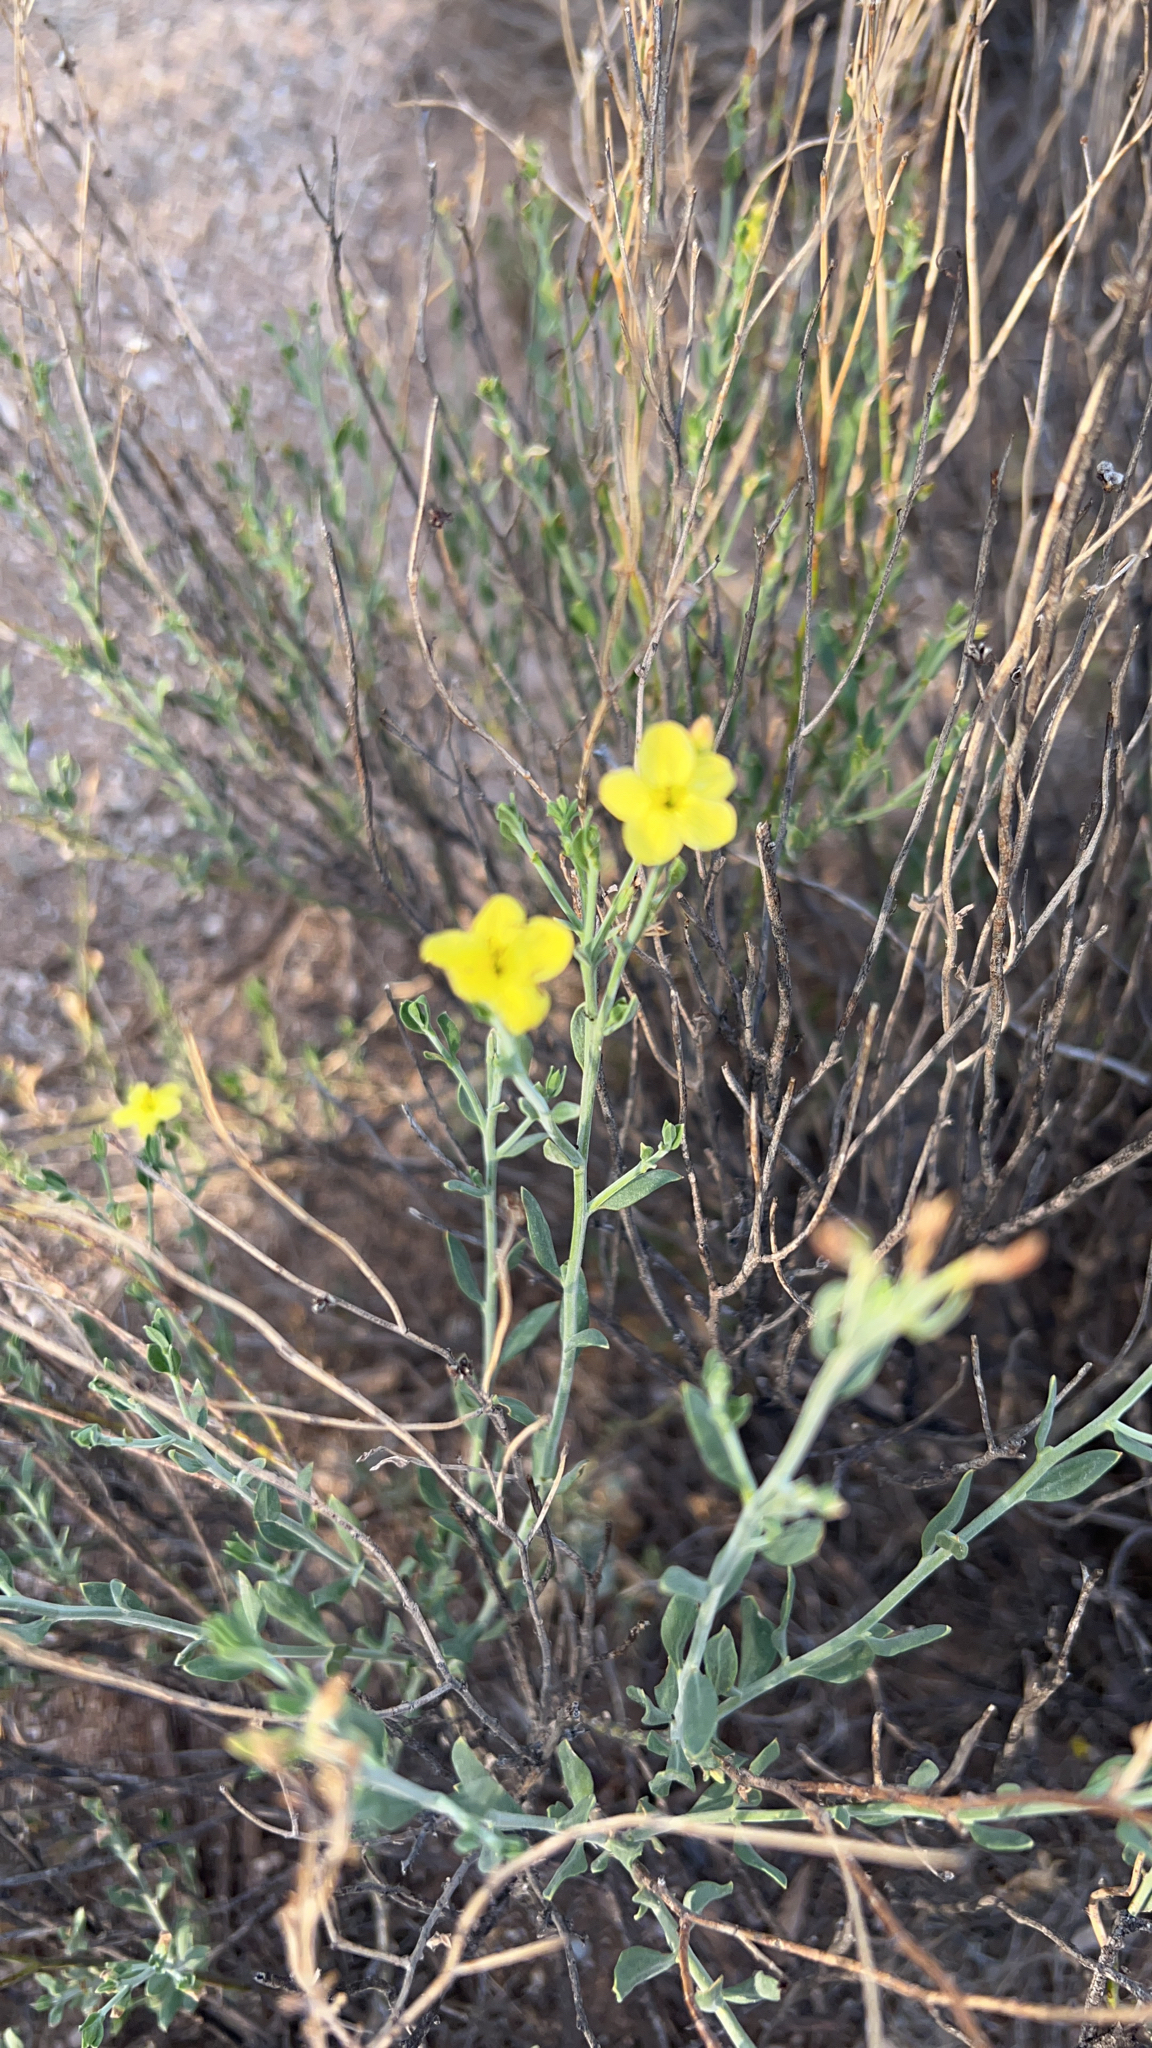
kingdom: Plantae
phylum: Tracheophyta
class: Magnoliopsida
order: Lamiales
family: Oleaceae
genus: Menodora
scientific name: Menodora scabra
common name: Rough menodora
